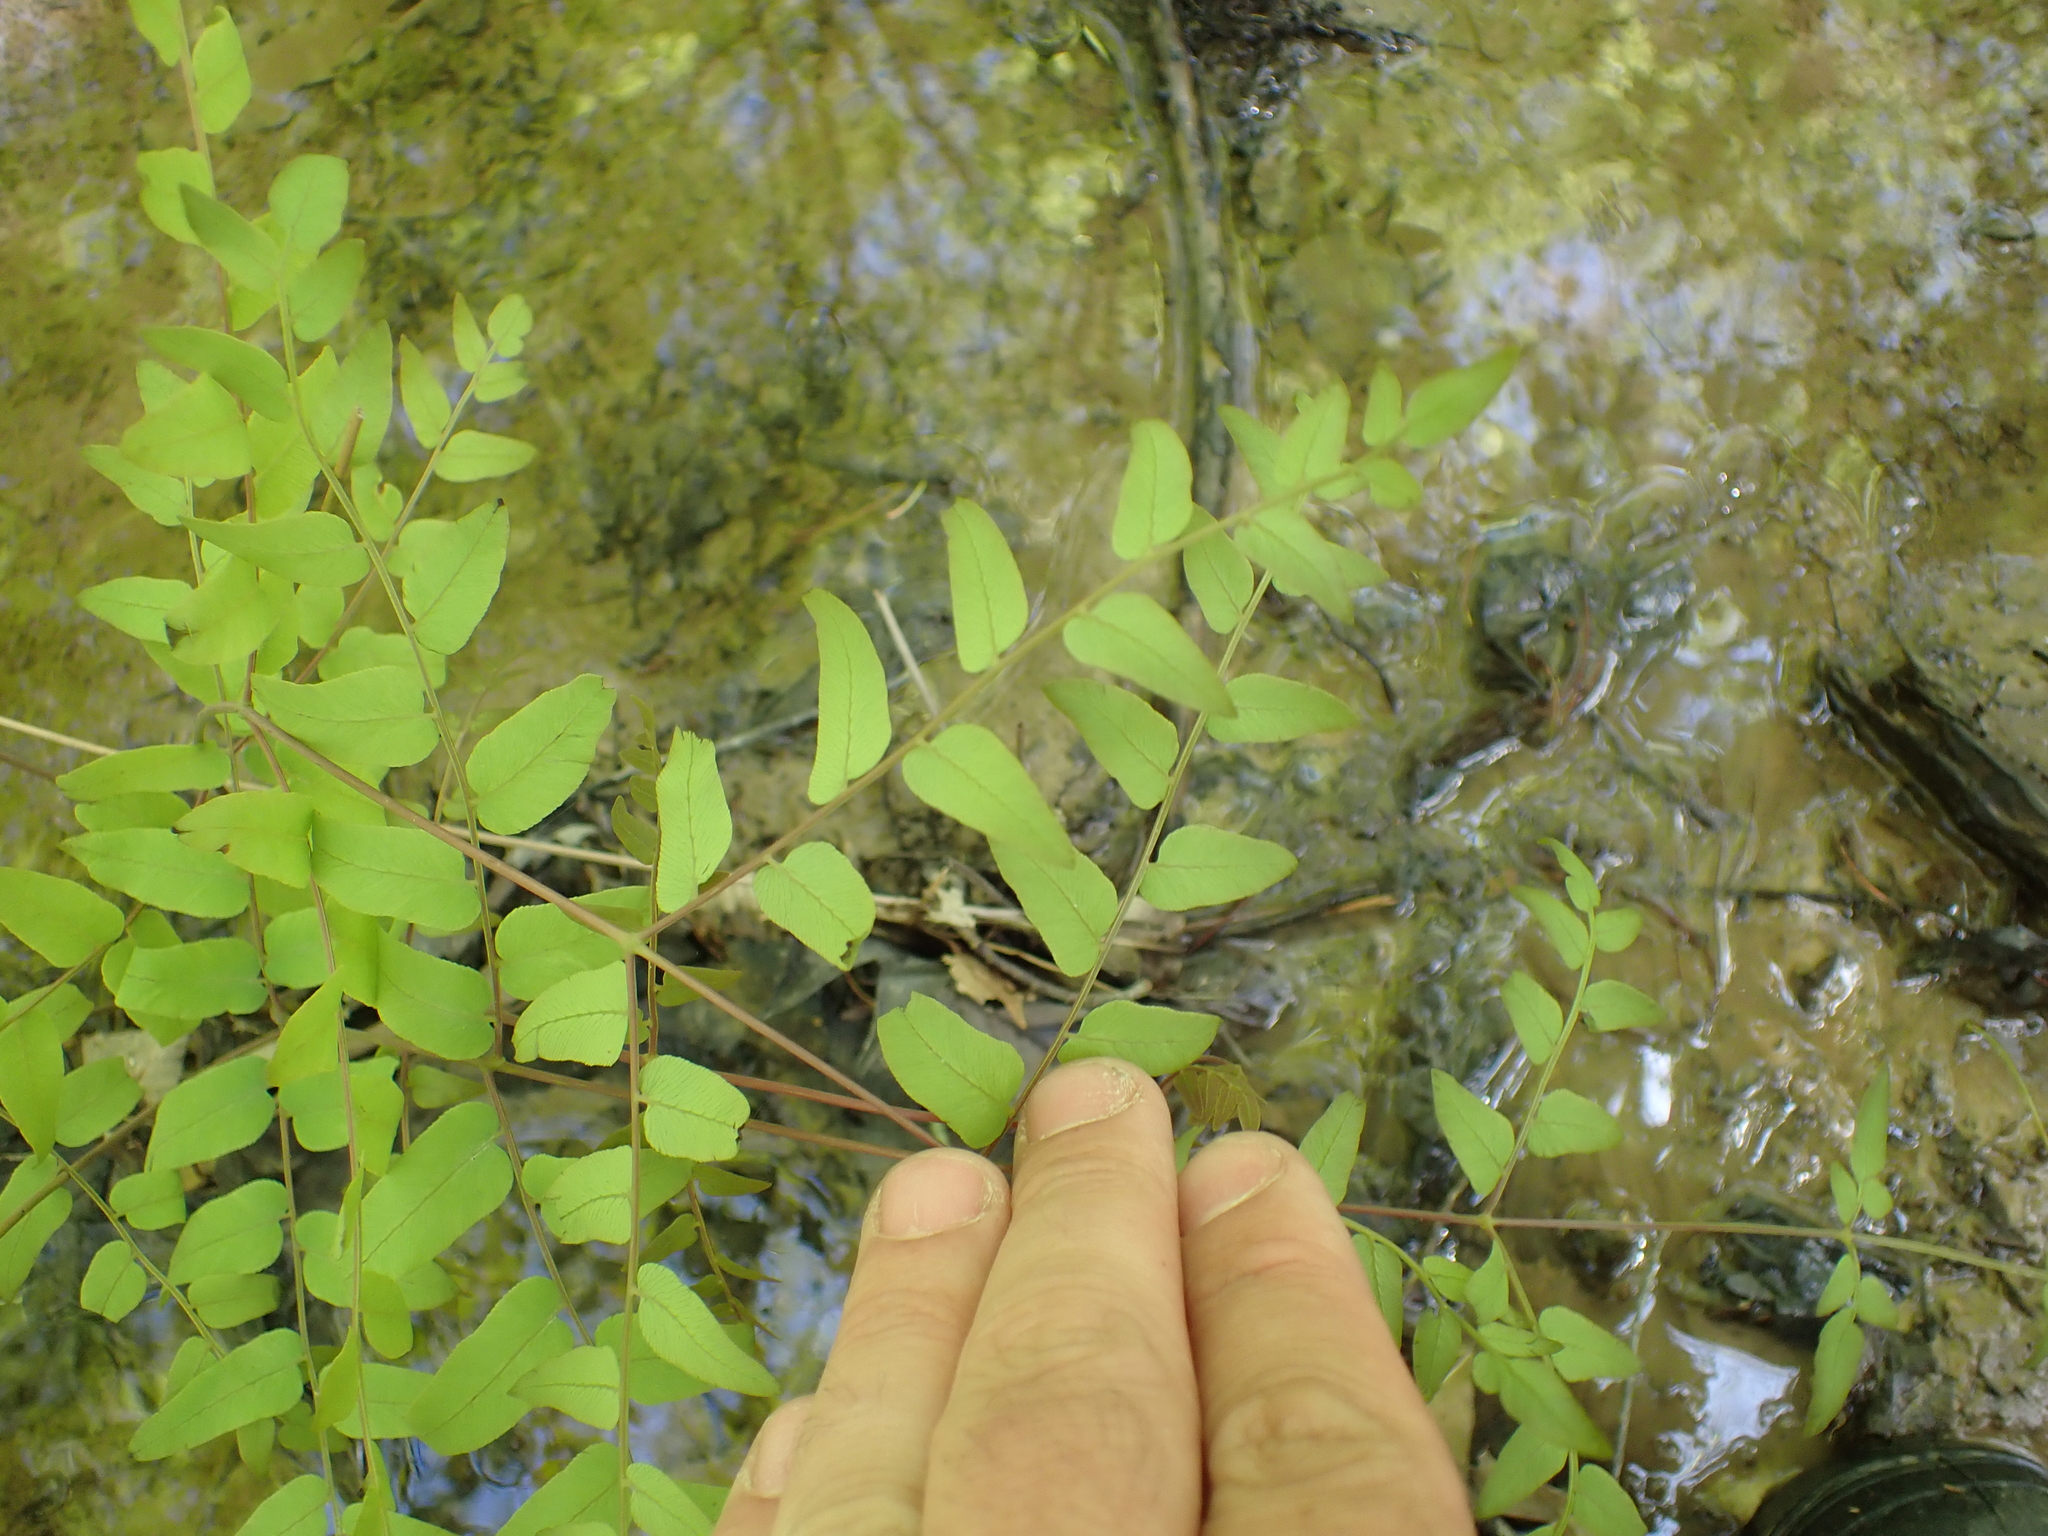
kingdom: Plantae
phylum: Tracheophyta
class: Polypodiopsida
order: Osmundales
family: Osmundaceae
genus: Osmunda
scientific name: Osmunda spectabilis
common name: American royal fern
